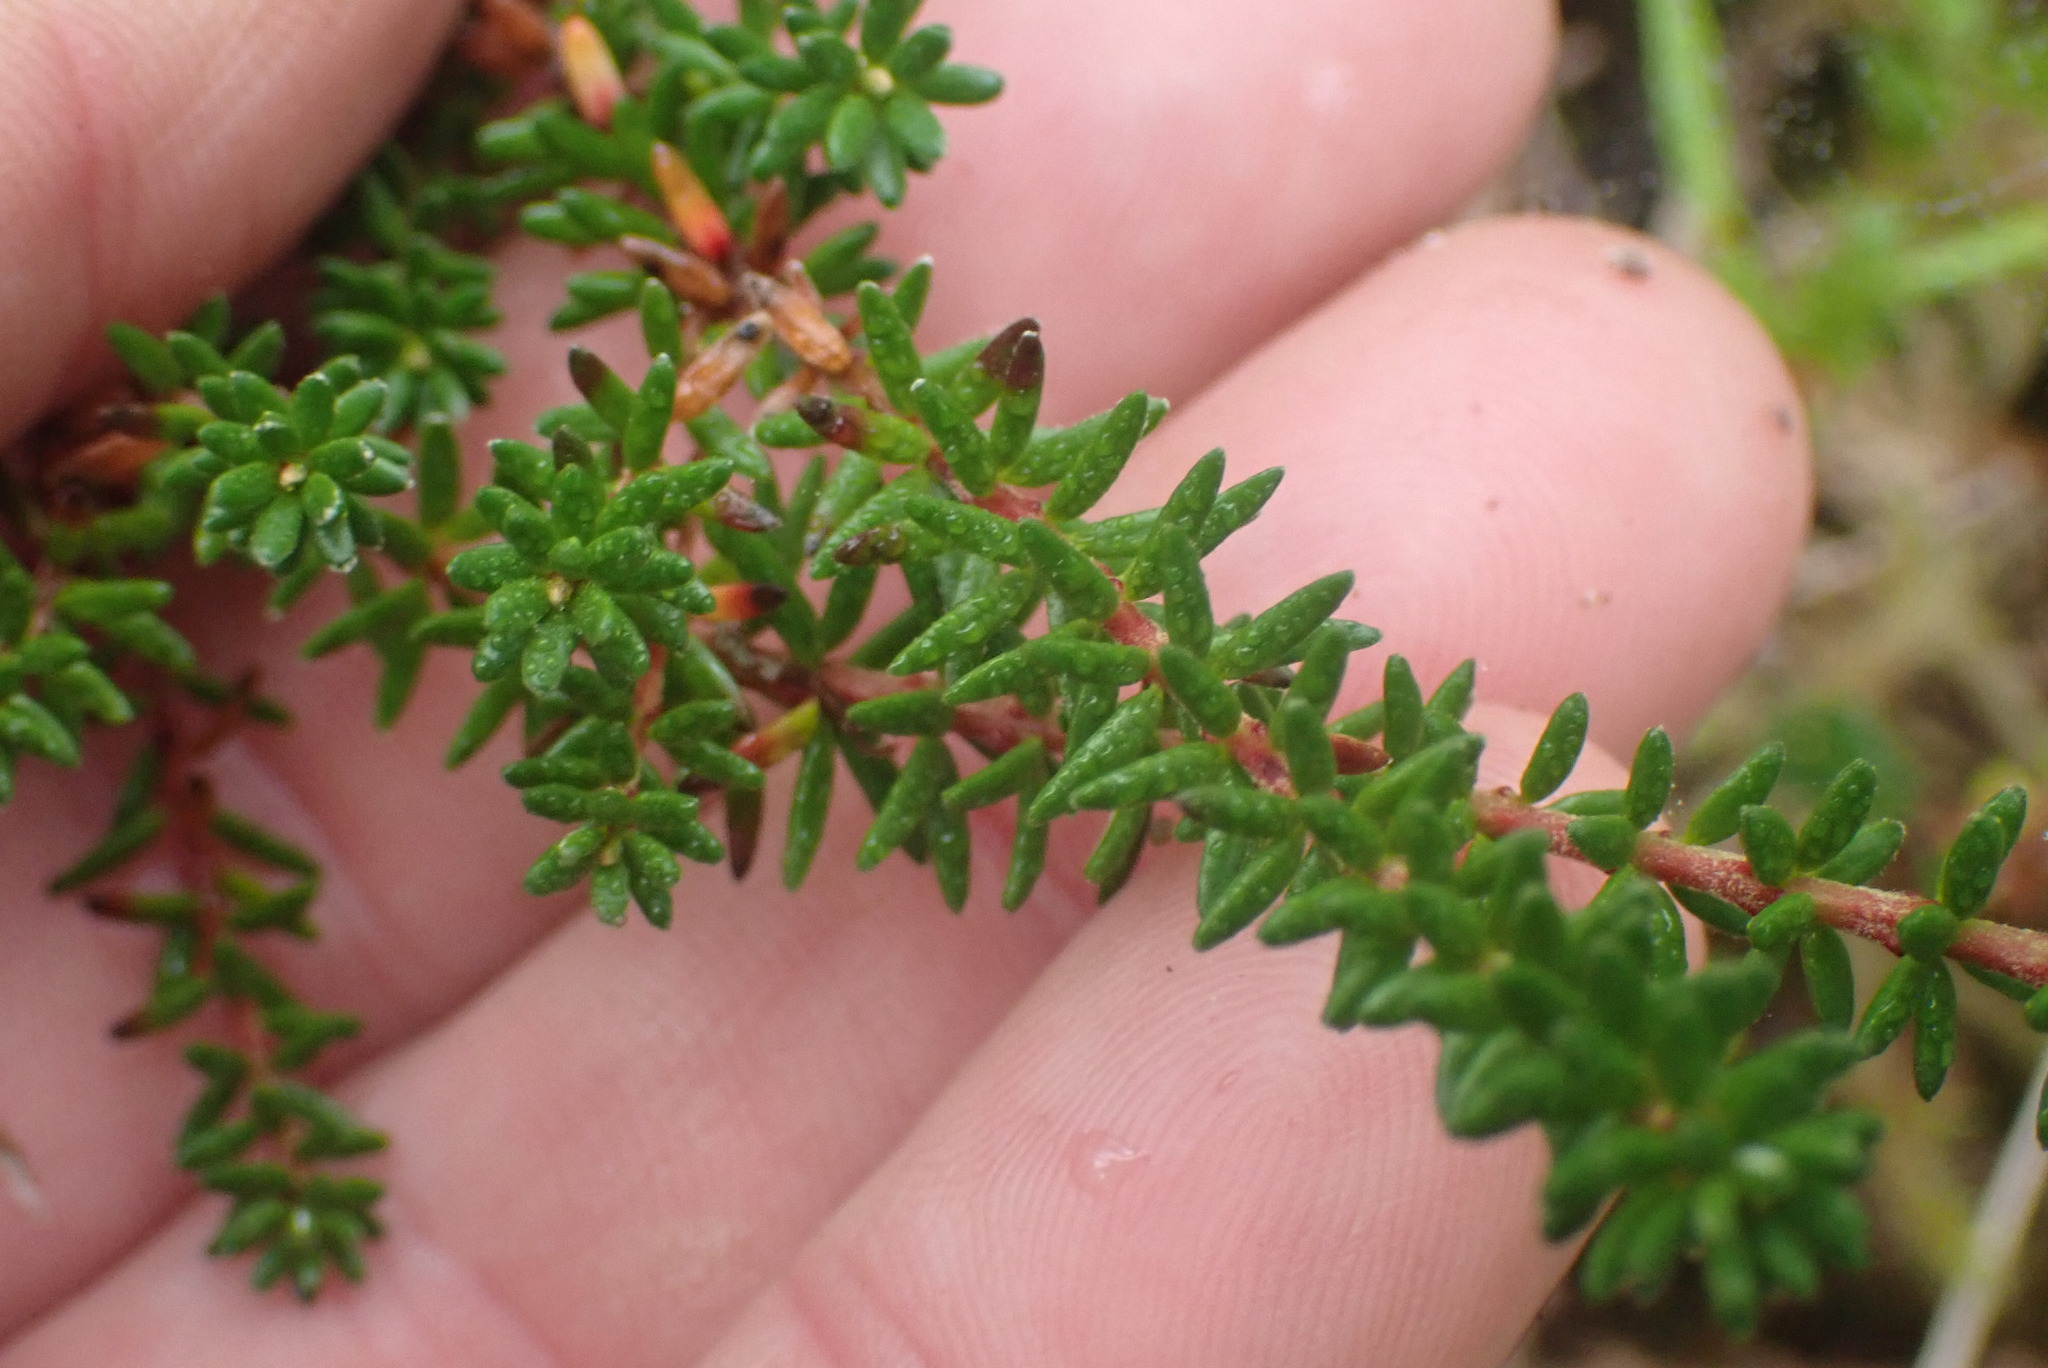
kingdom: Plantae
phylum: Tracheophyta
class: Magnoliopsida
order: Ericales
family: Ericaceae
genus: Empetrum
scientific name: Empetrum nigrum
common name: Black crowberry
